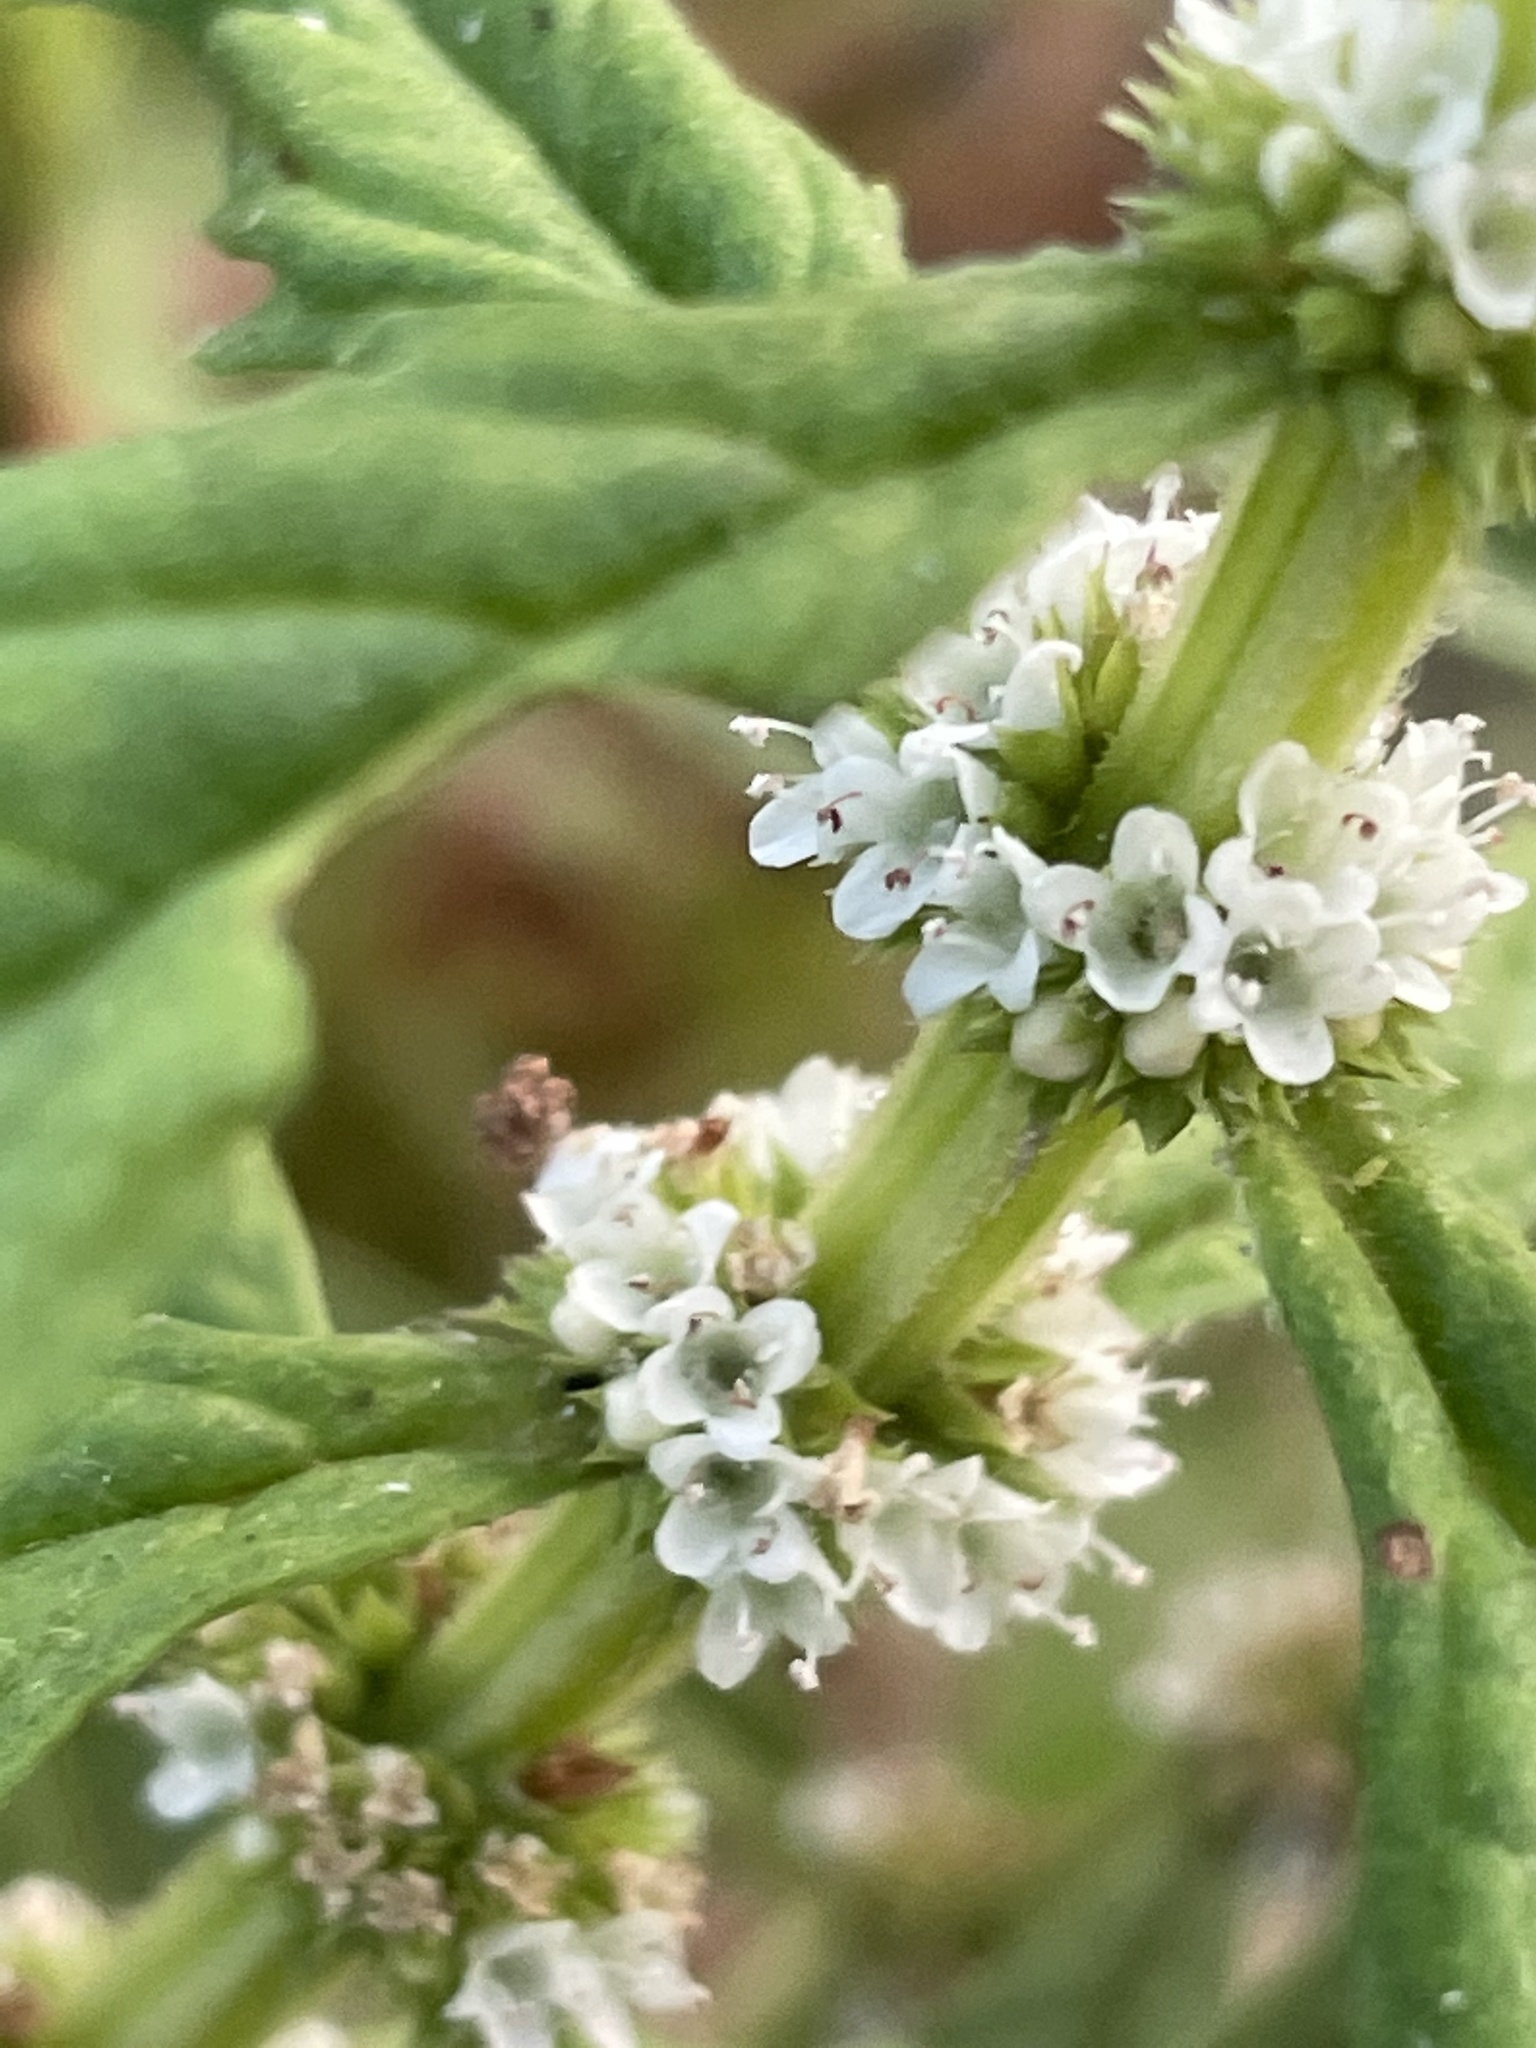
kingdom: Plantae
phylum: Tracheophyta
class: Magnoliopsida
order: Lamiales
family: Lamiaceae
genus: Lycopus
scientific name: Lycopus americanus
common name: American bugleweed
